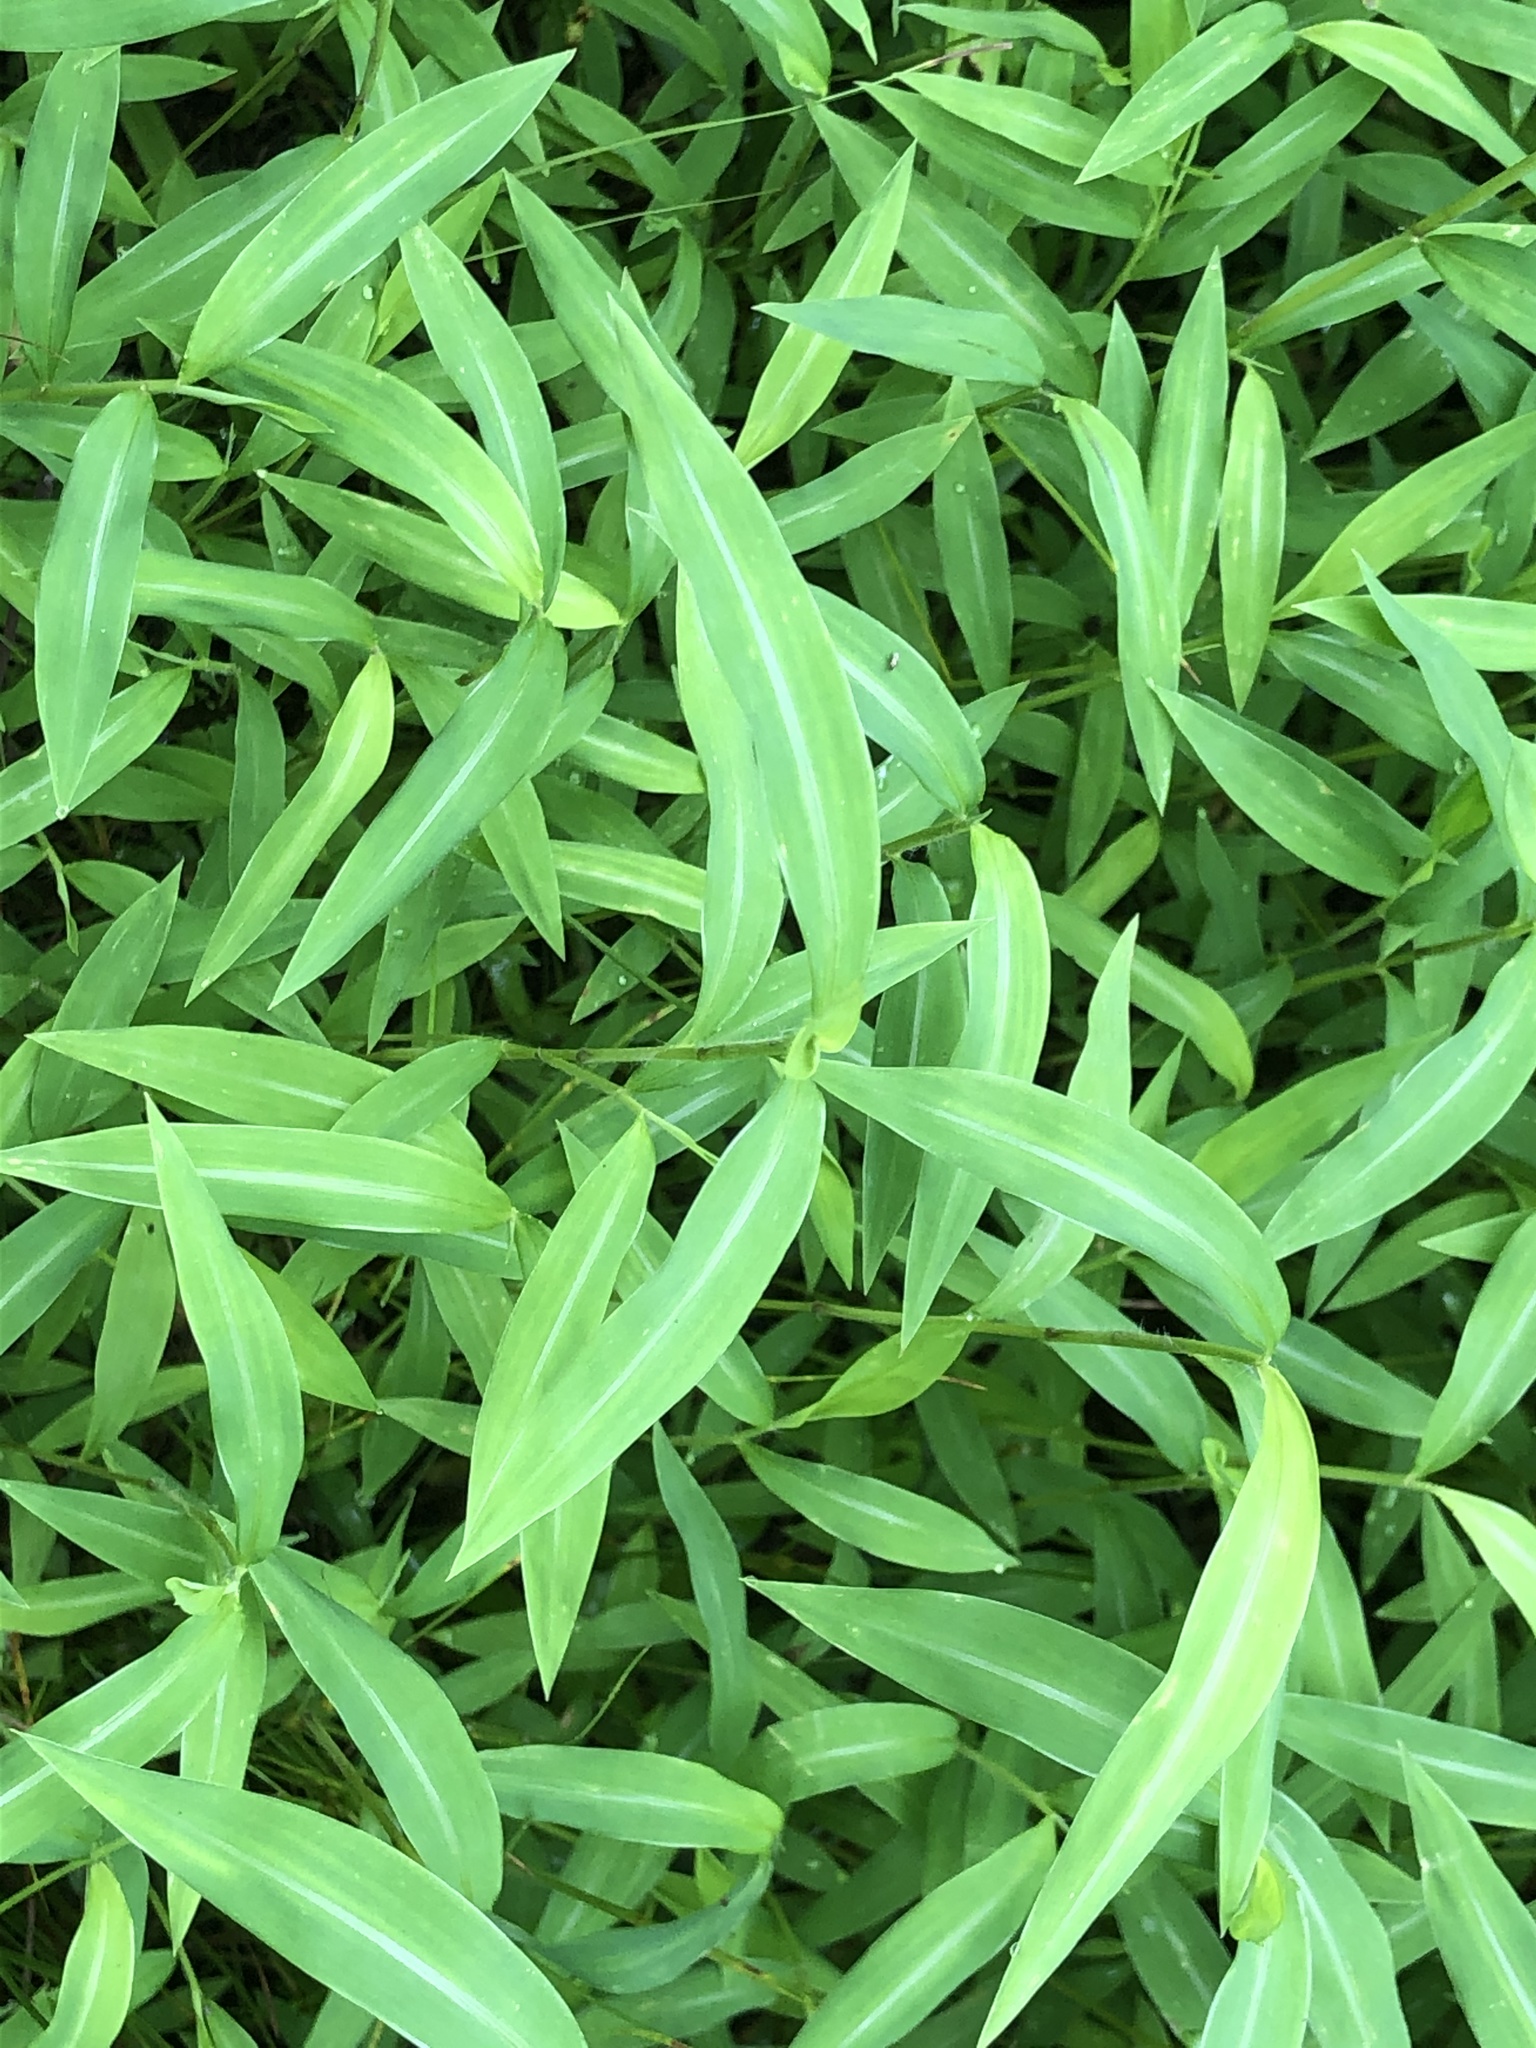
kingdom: Plantae
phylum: Tracheophyta
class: Liliopsida
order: Poales
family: Poaceae
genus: Microstegium
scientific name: Microstegium vimineum
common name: Japanese stiltgrass
